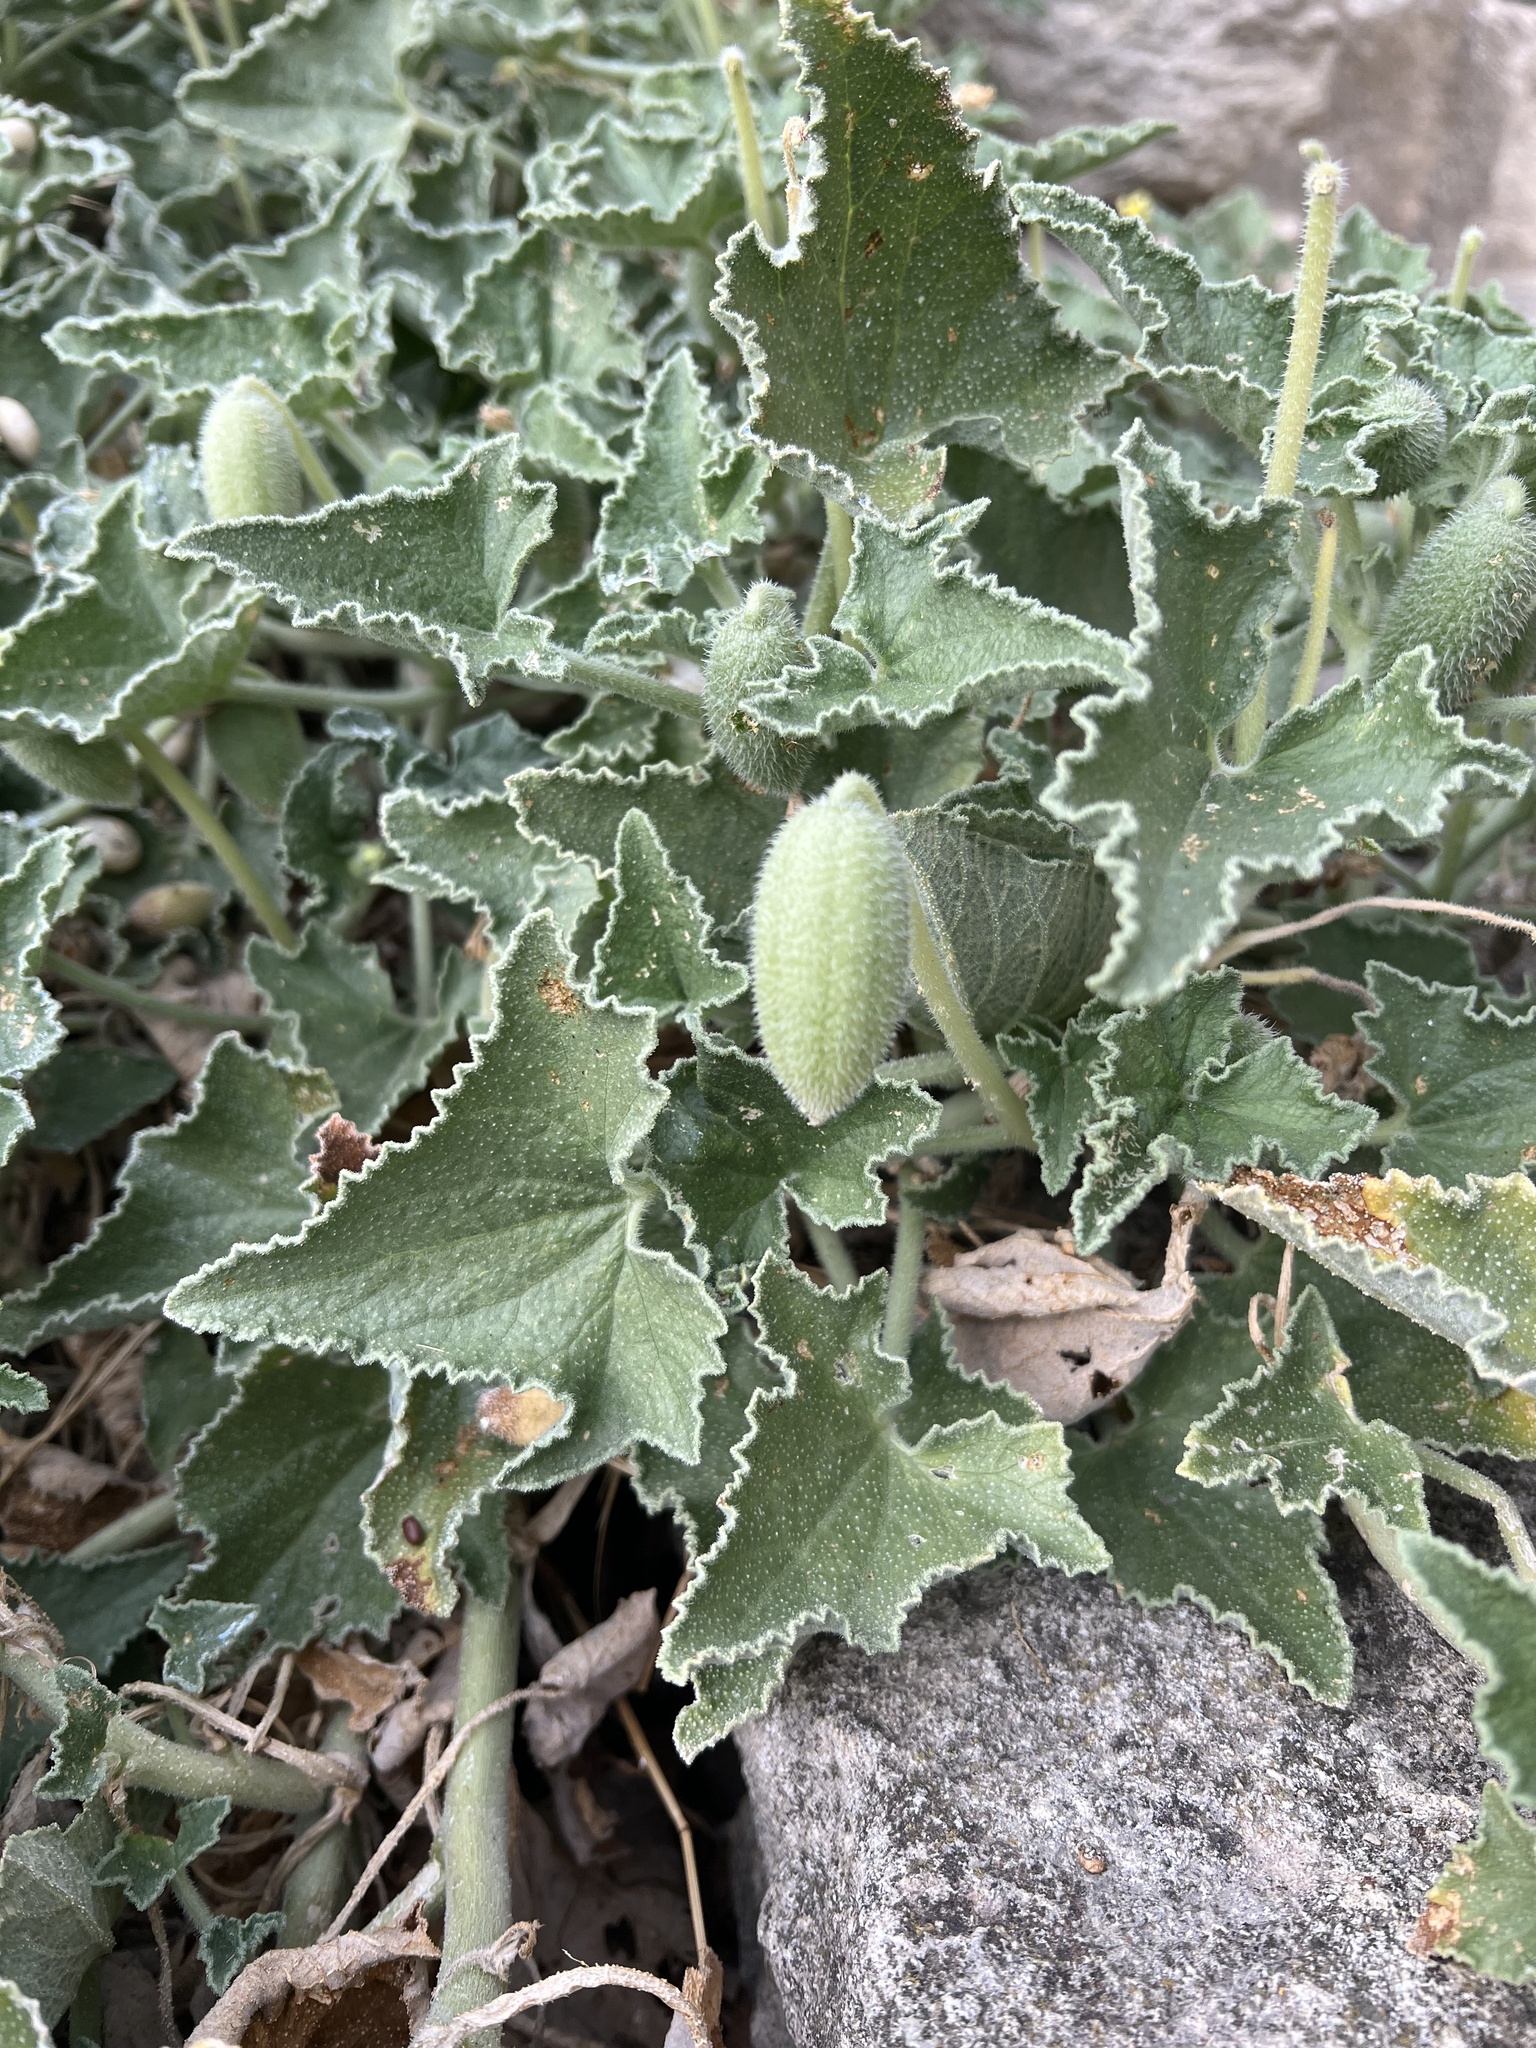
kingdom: Plantae
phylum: Tracheophyta
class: Magnoliopsida
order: Cucurbitales
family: Cucurbitaceae
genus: Ecballium
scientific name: Ecballium elaterium
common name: Squirting cucumber
